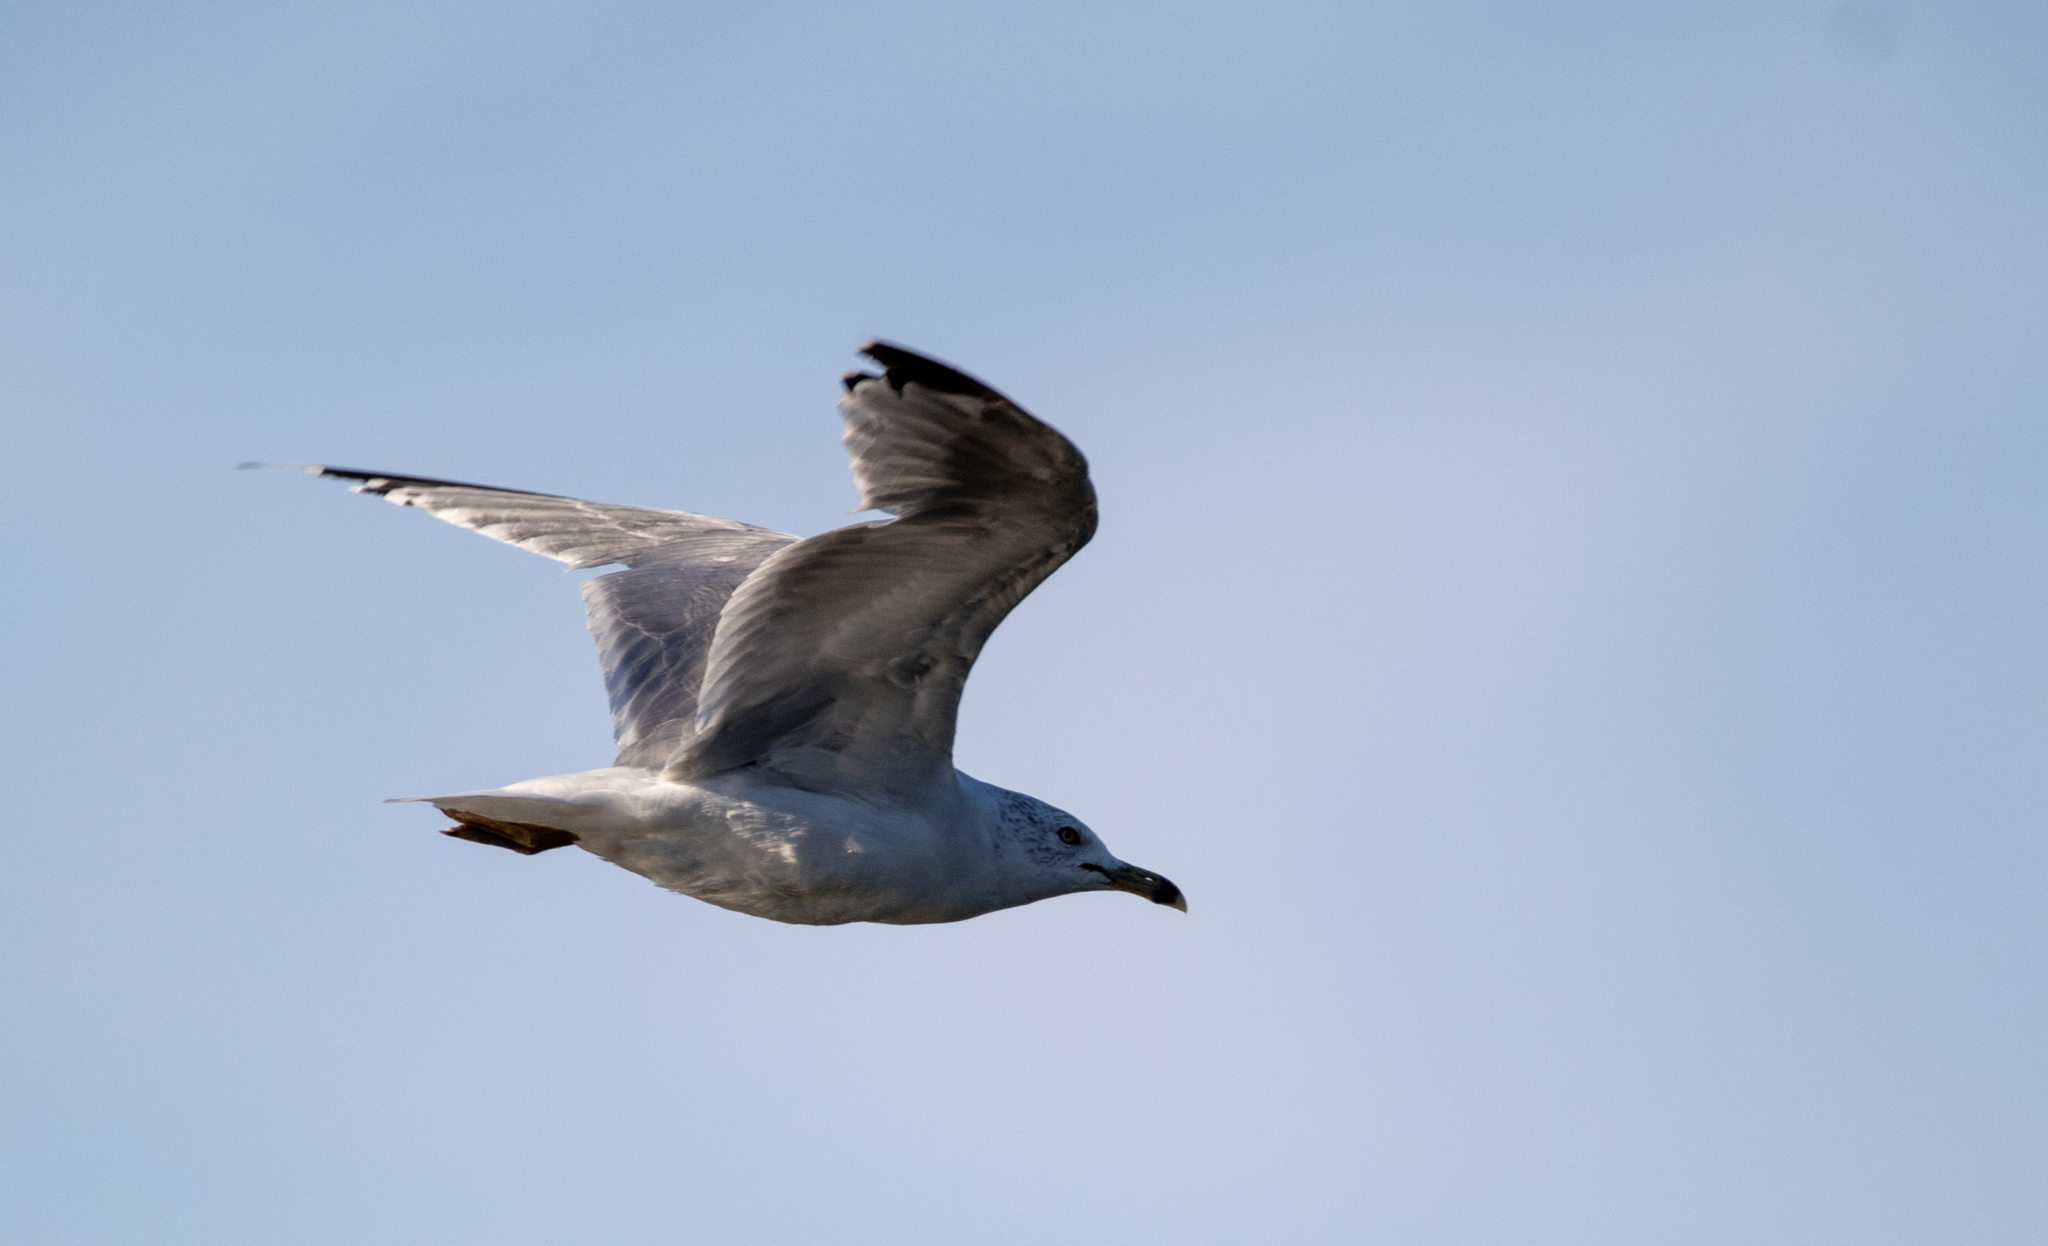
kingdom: Animalia
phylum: Chordata
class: Aves
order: Charadriiformes
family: Laridae
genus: Larus
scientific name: Larus delawarensis
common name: Ring-billed gull
